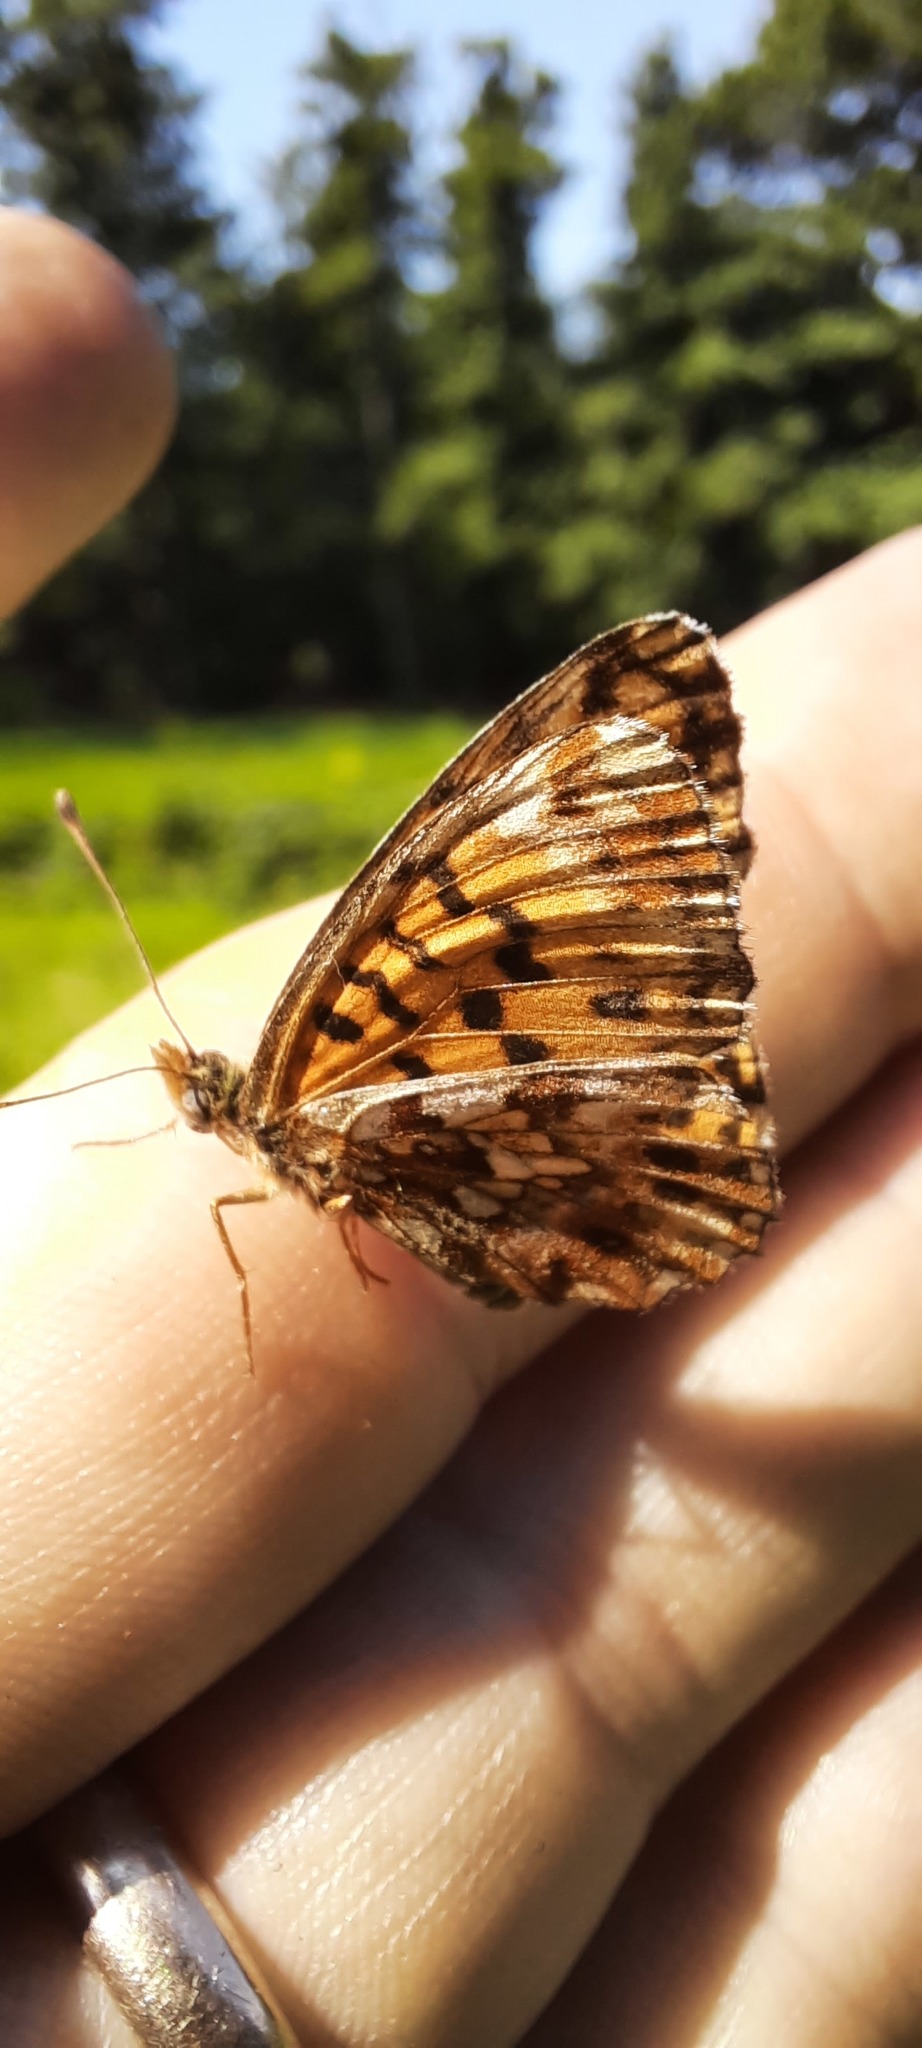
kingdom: Animalia
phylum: Arthropoda
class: Insecta
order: Lepidoptera
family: Nymphalidae
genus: Boloria
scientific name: Boloria dia
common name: Weaver's fritillary
